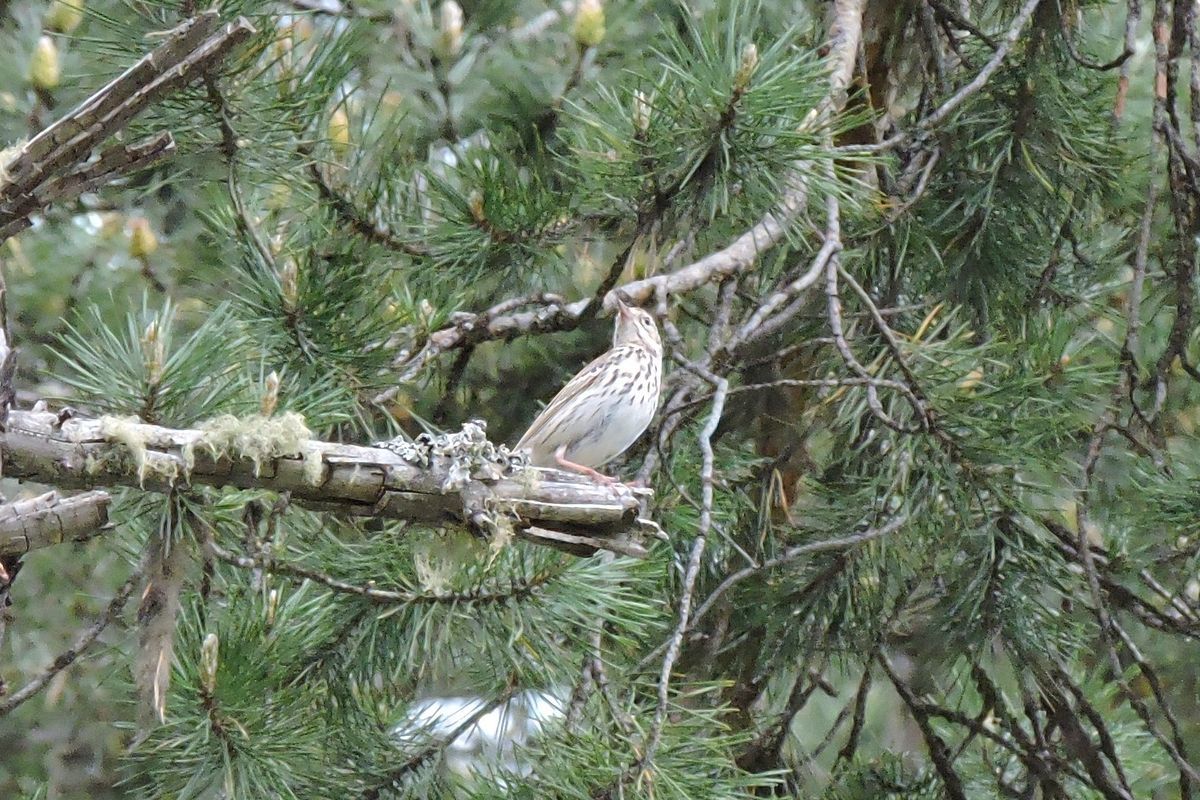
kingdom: Animalia
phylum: Chordata
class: Aves
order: Passeriformes
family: Motacillidae
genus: Anthus
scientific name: Anthus trivialis
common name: Tree pipit
